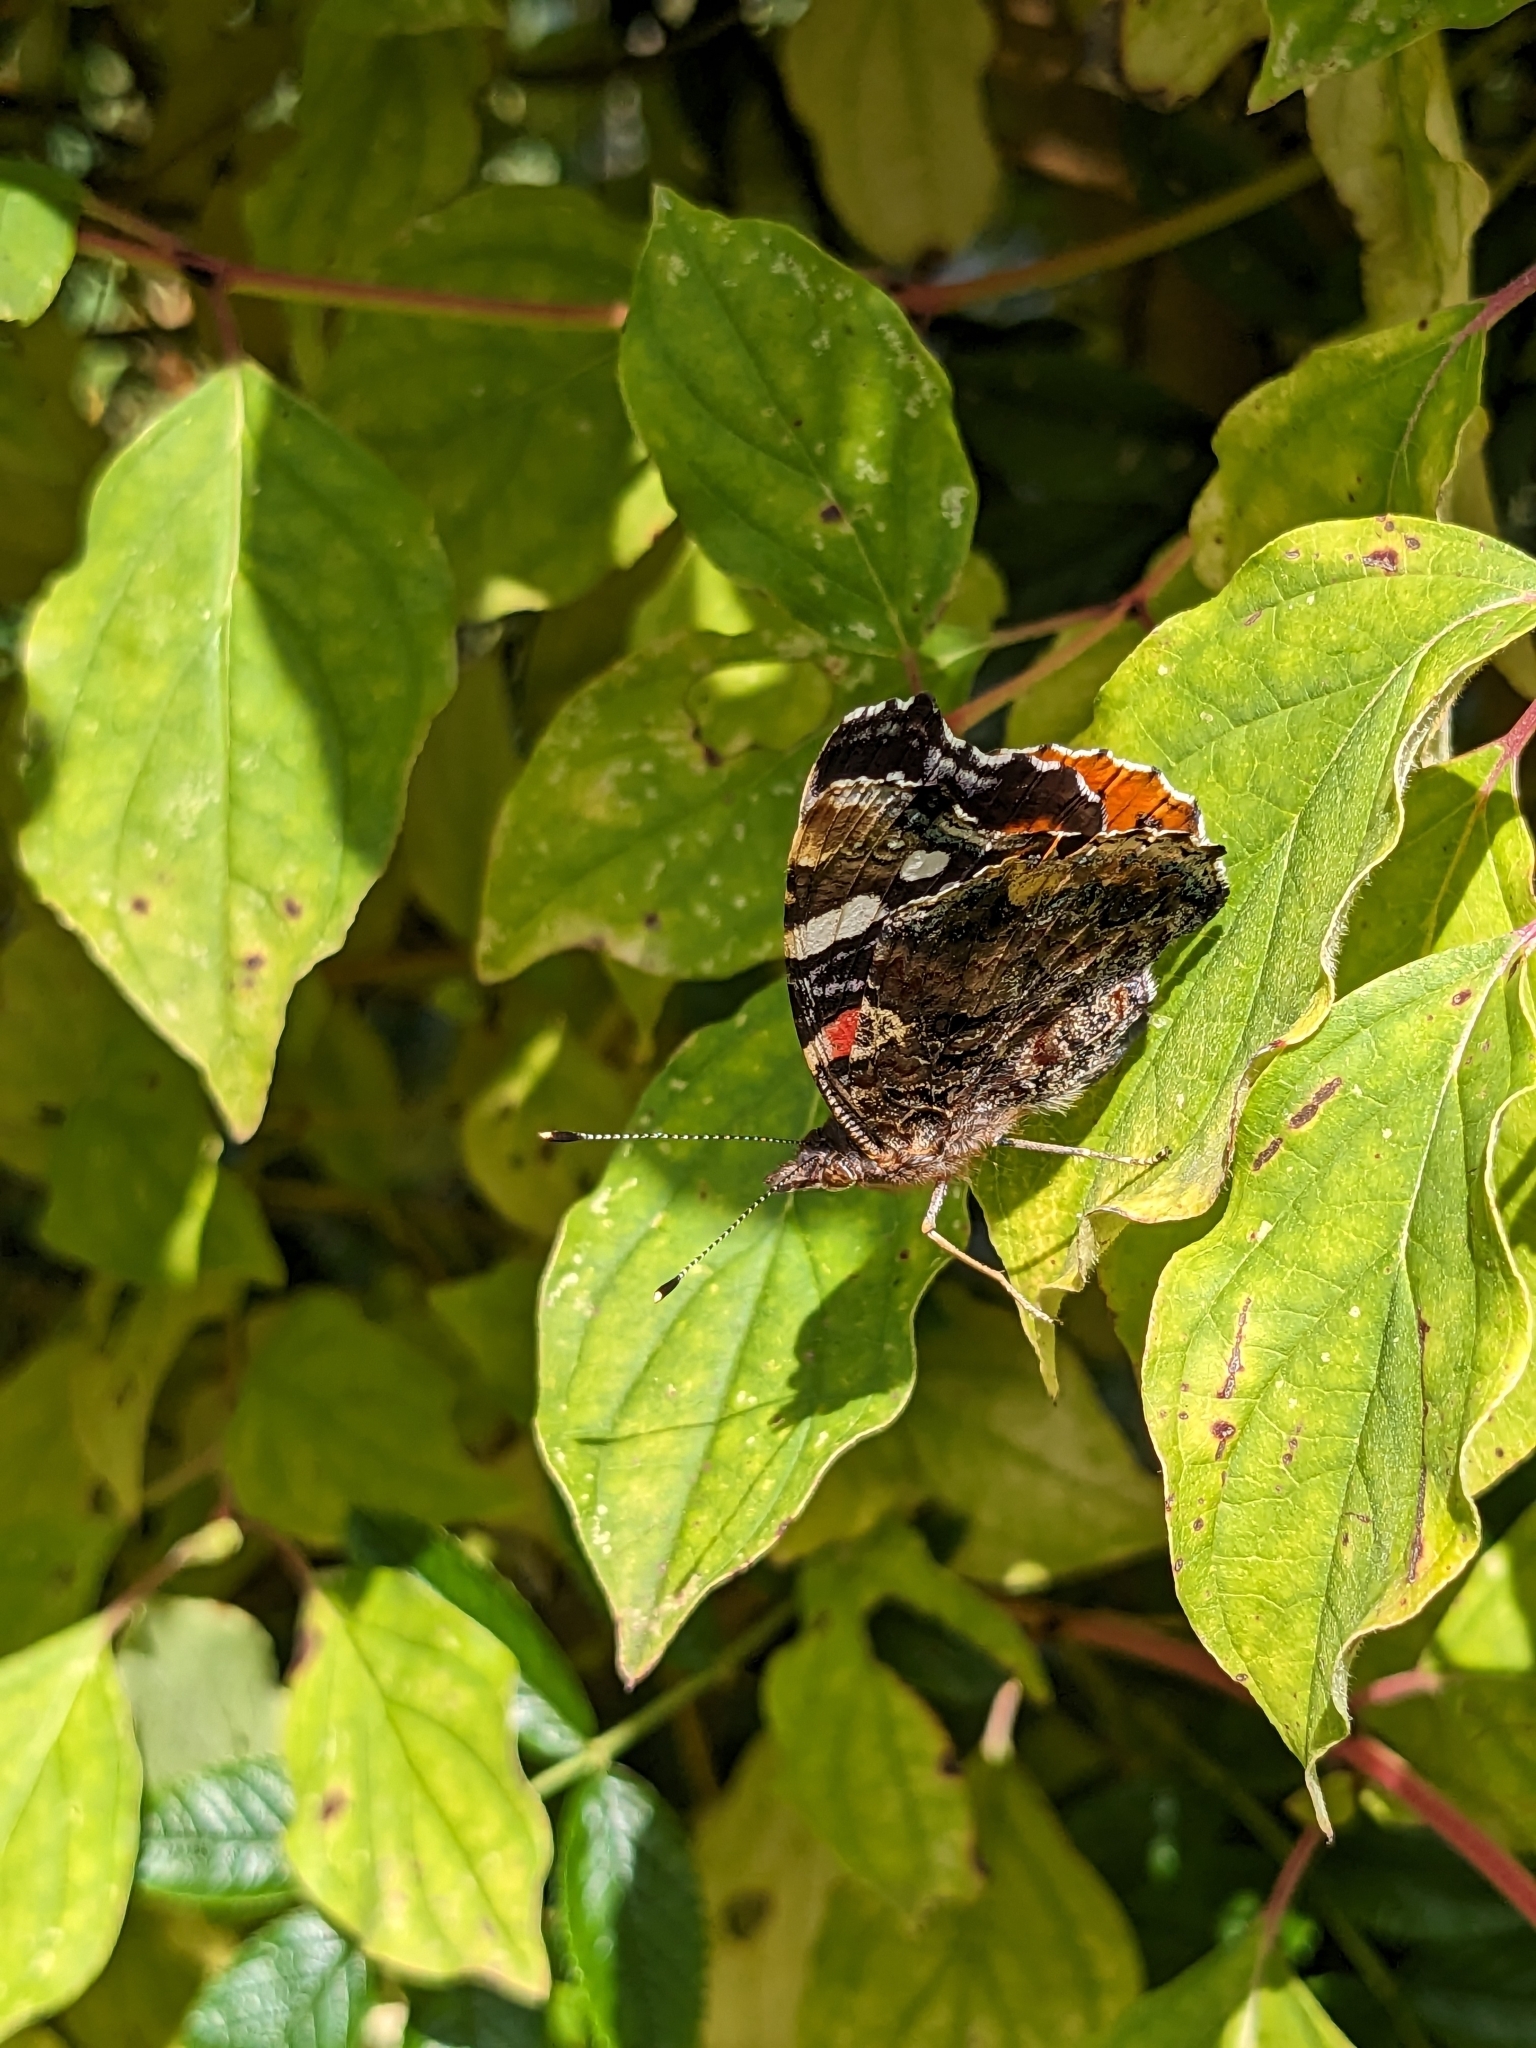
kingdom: Animalia
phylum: Arthropoda
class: Insecta
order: Lepidoptera
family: Nymphalidae
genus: Vanessa
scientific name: Vanessa atalanta
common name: Red admiral
